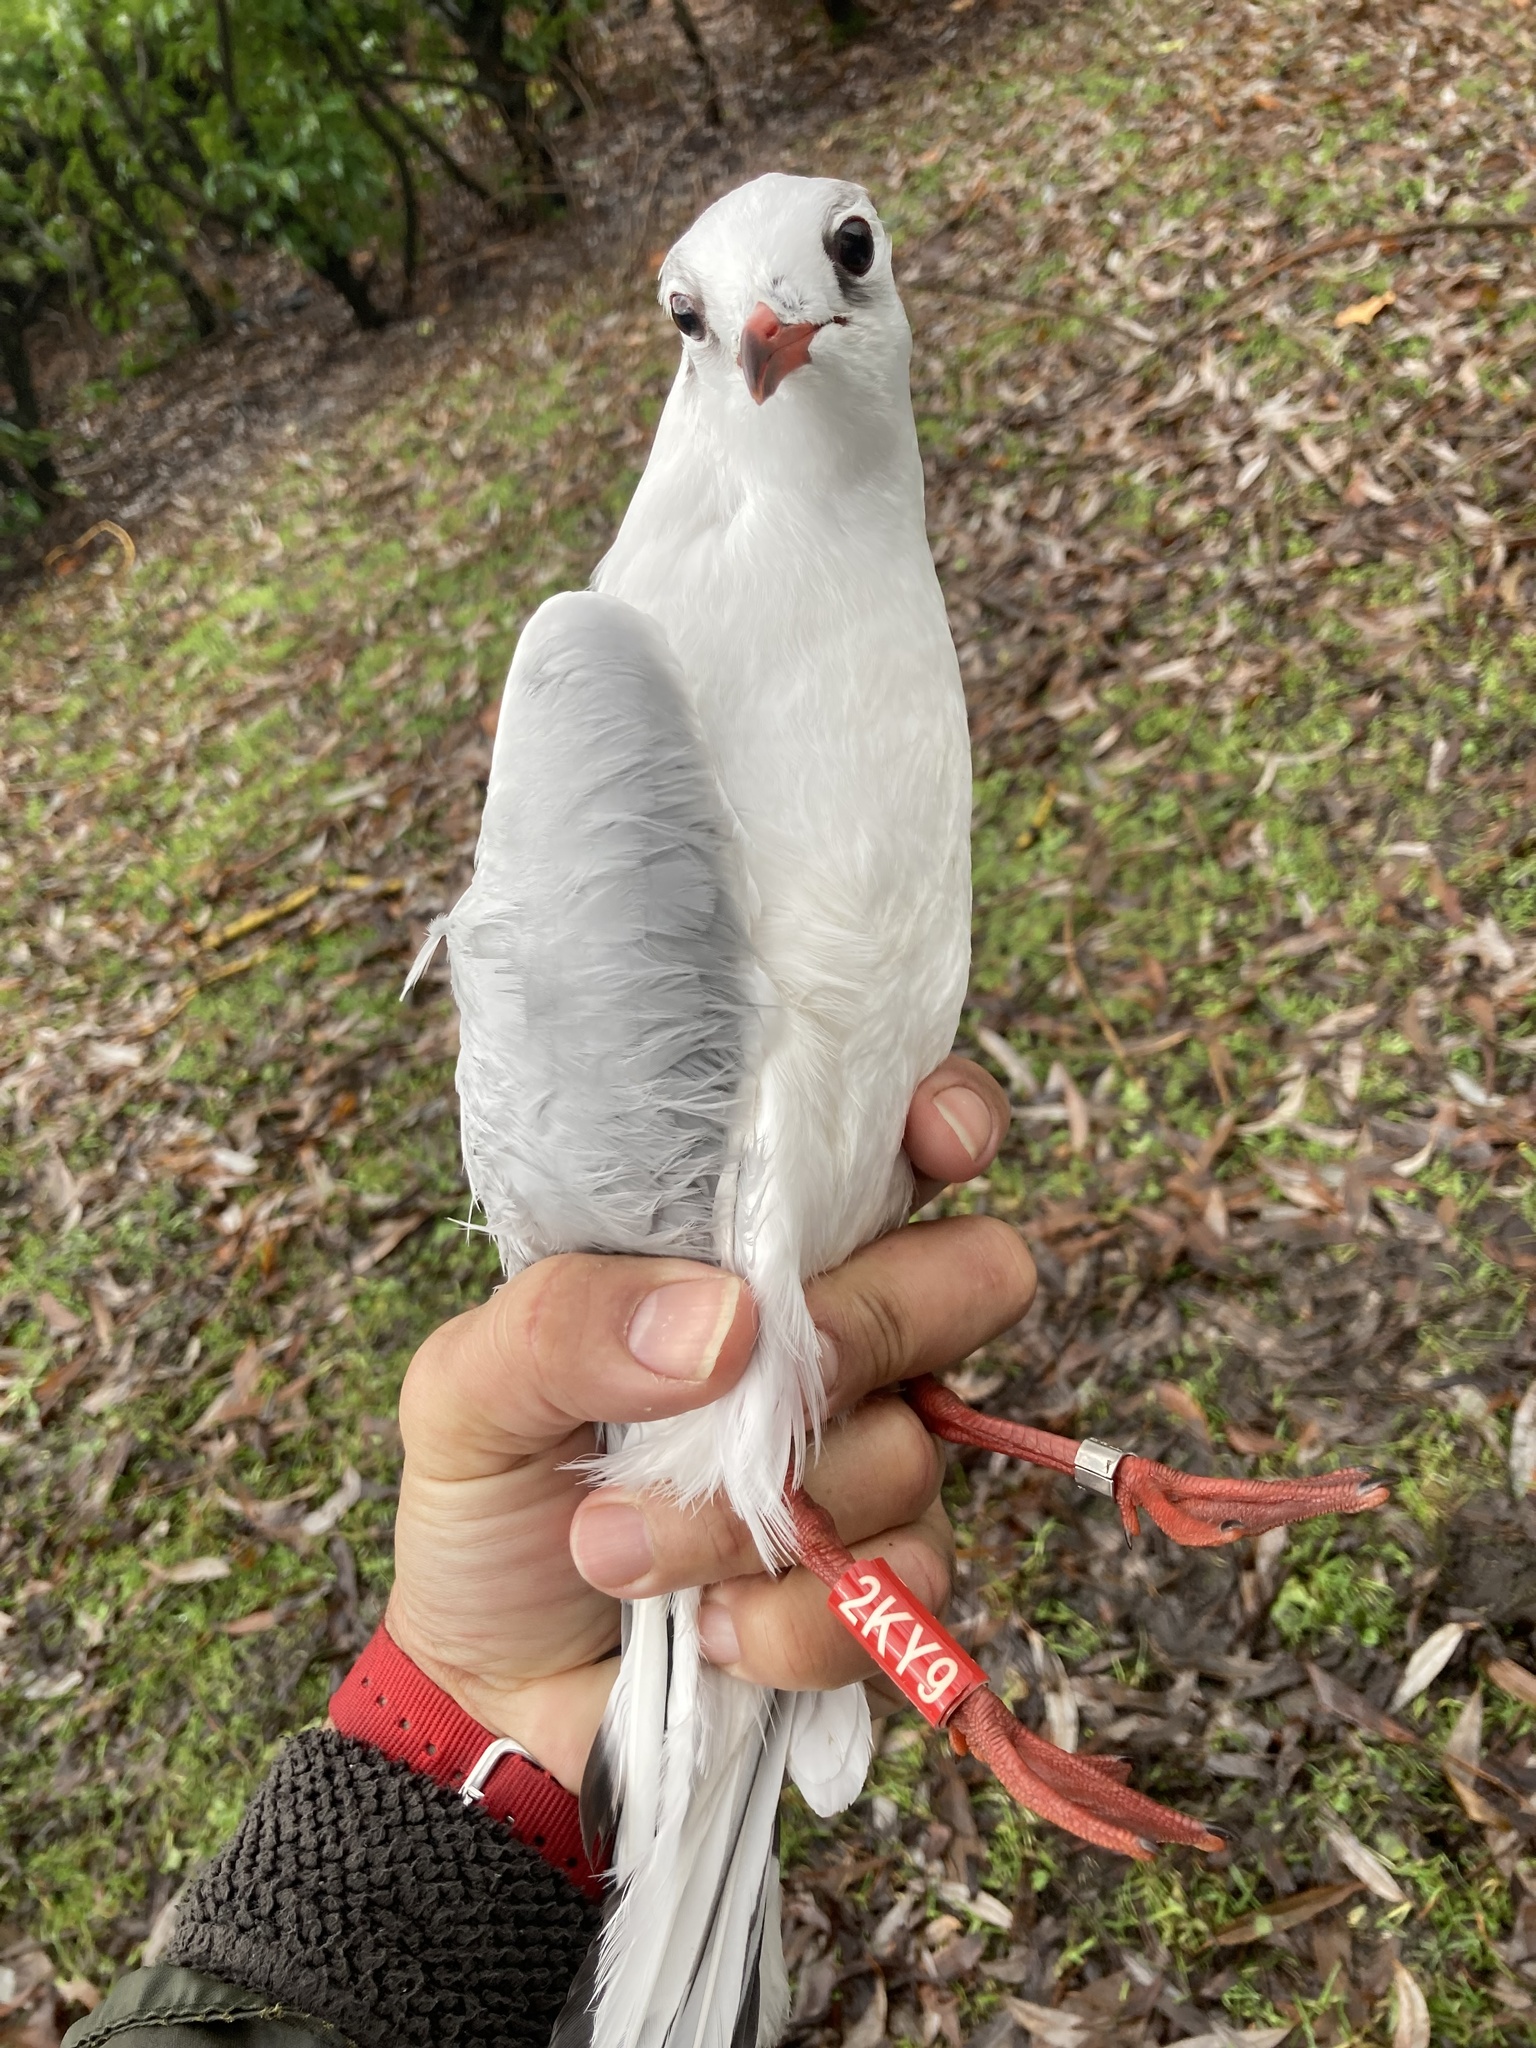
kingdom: Animalia
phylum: Chordata
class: Aves
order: Charadriiformes
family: Laridae
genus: Chroicocephalus
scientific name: Chroicocephalus ridibundus
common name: Black-headed gull
